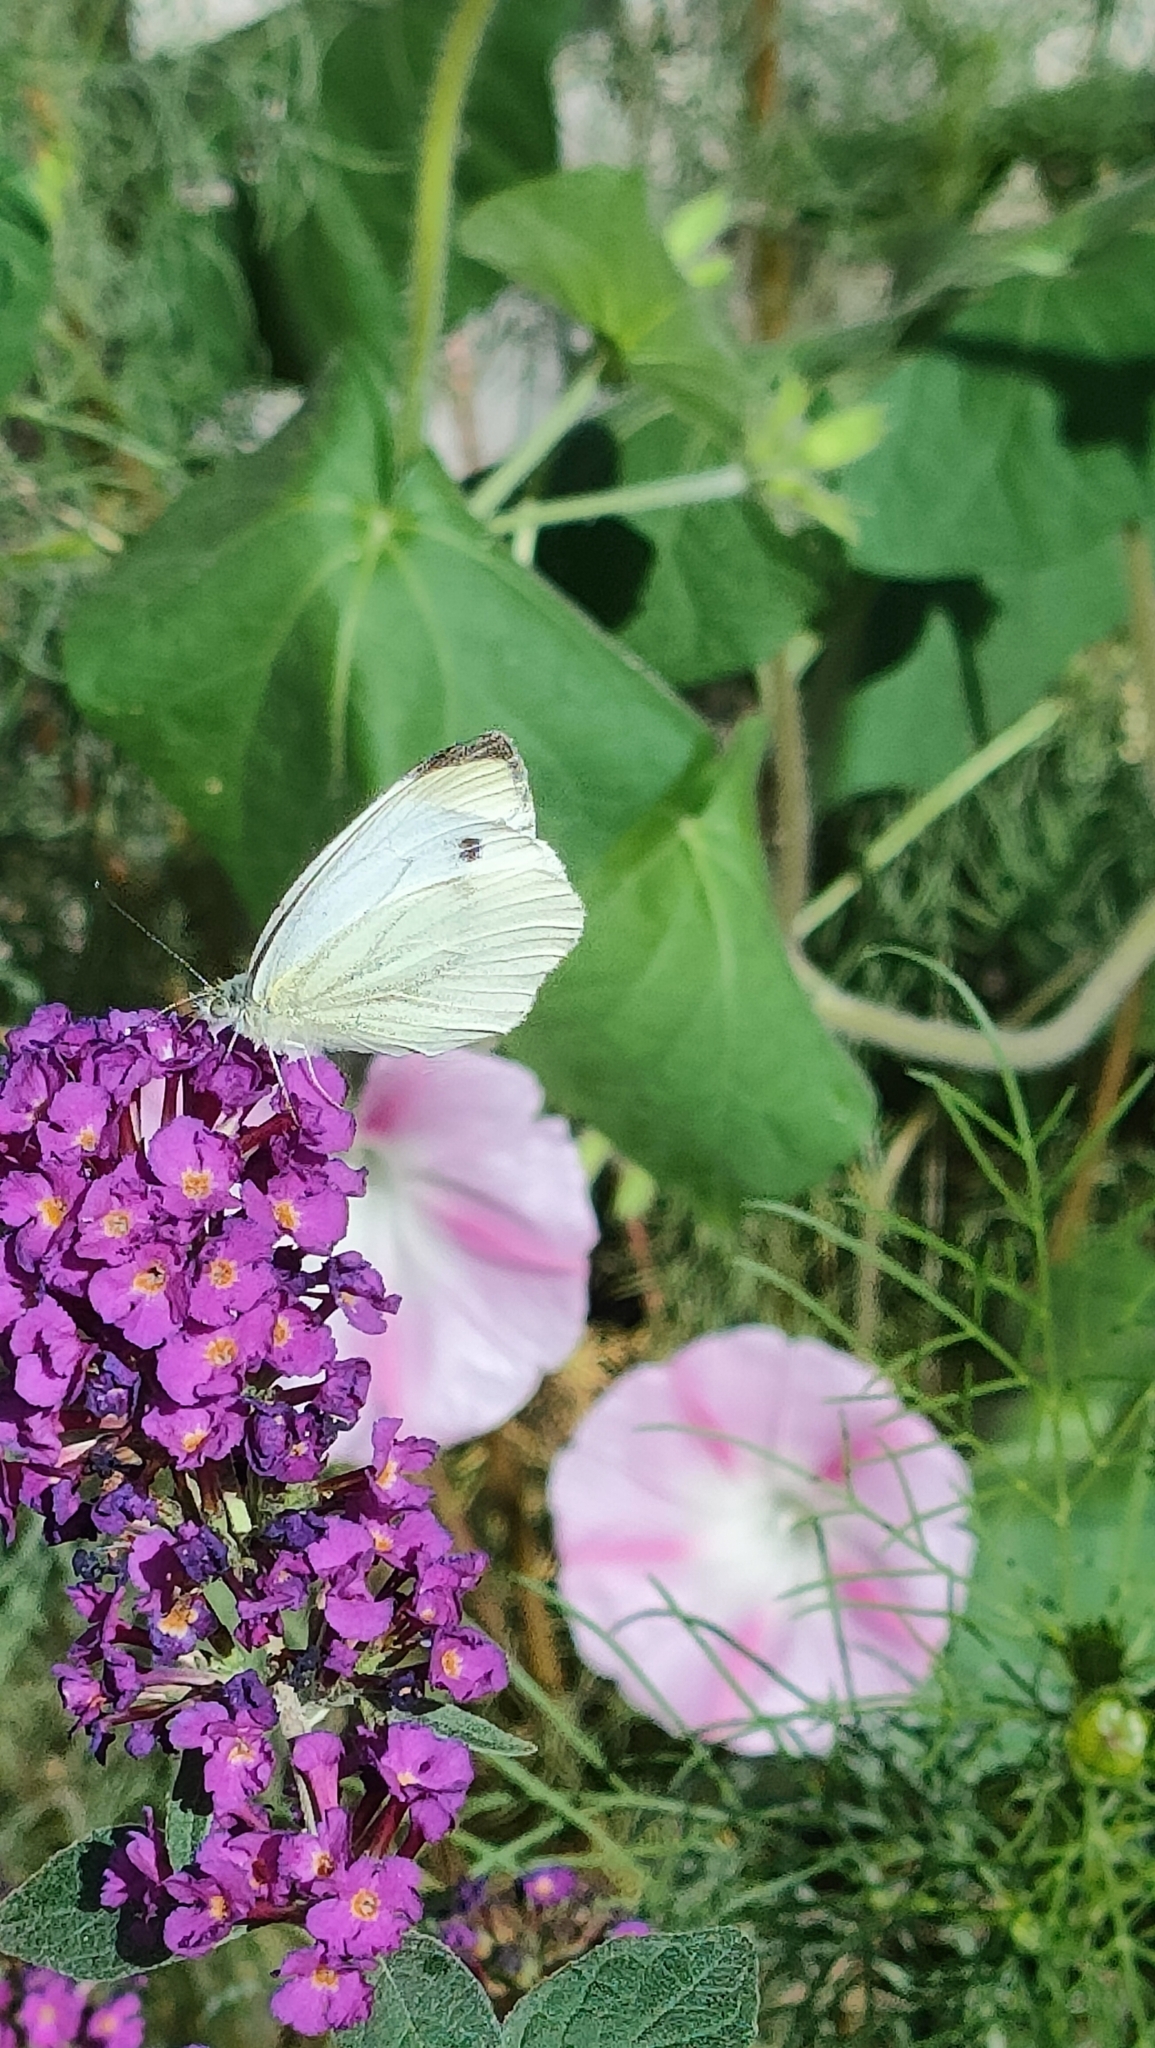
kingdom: Animalia
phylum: Arthropoda
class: Insecta
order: Lepidoptera
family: Pieridae
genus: Pieris
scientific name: Pieris napi
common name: Green-veined white
